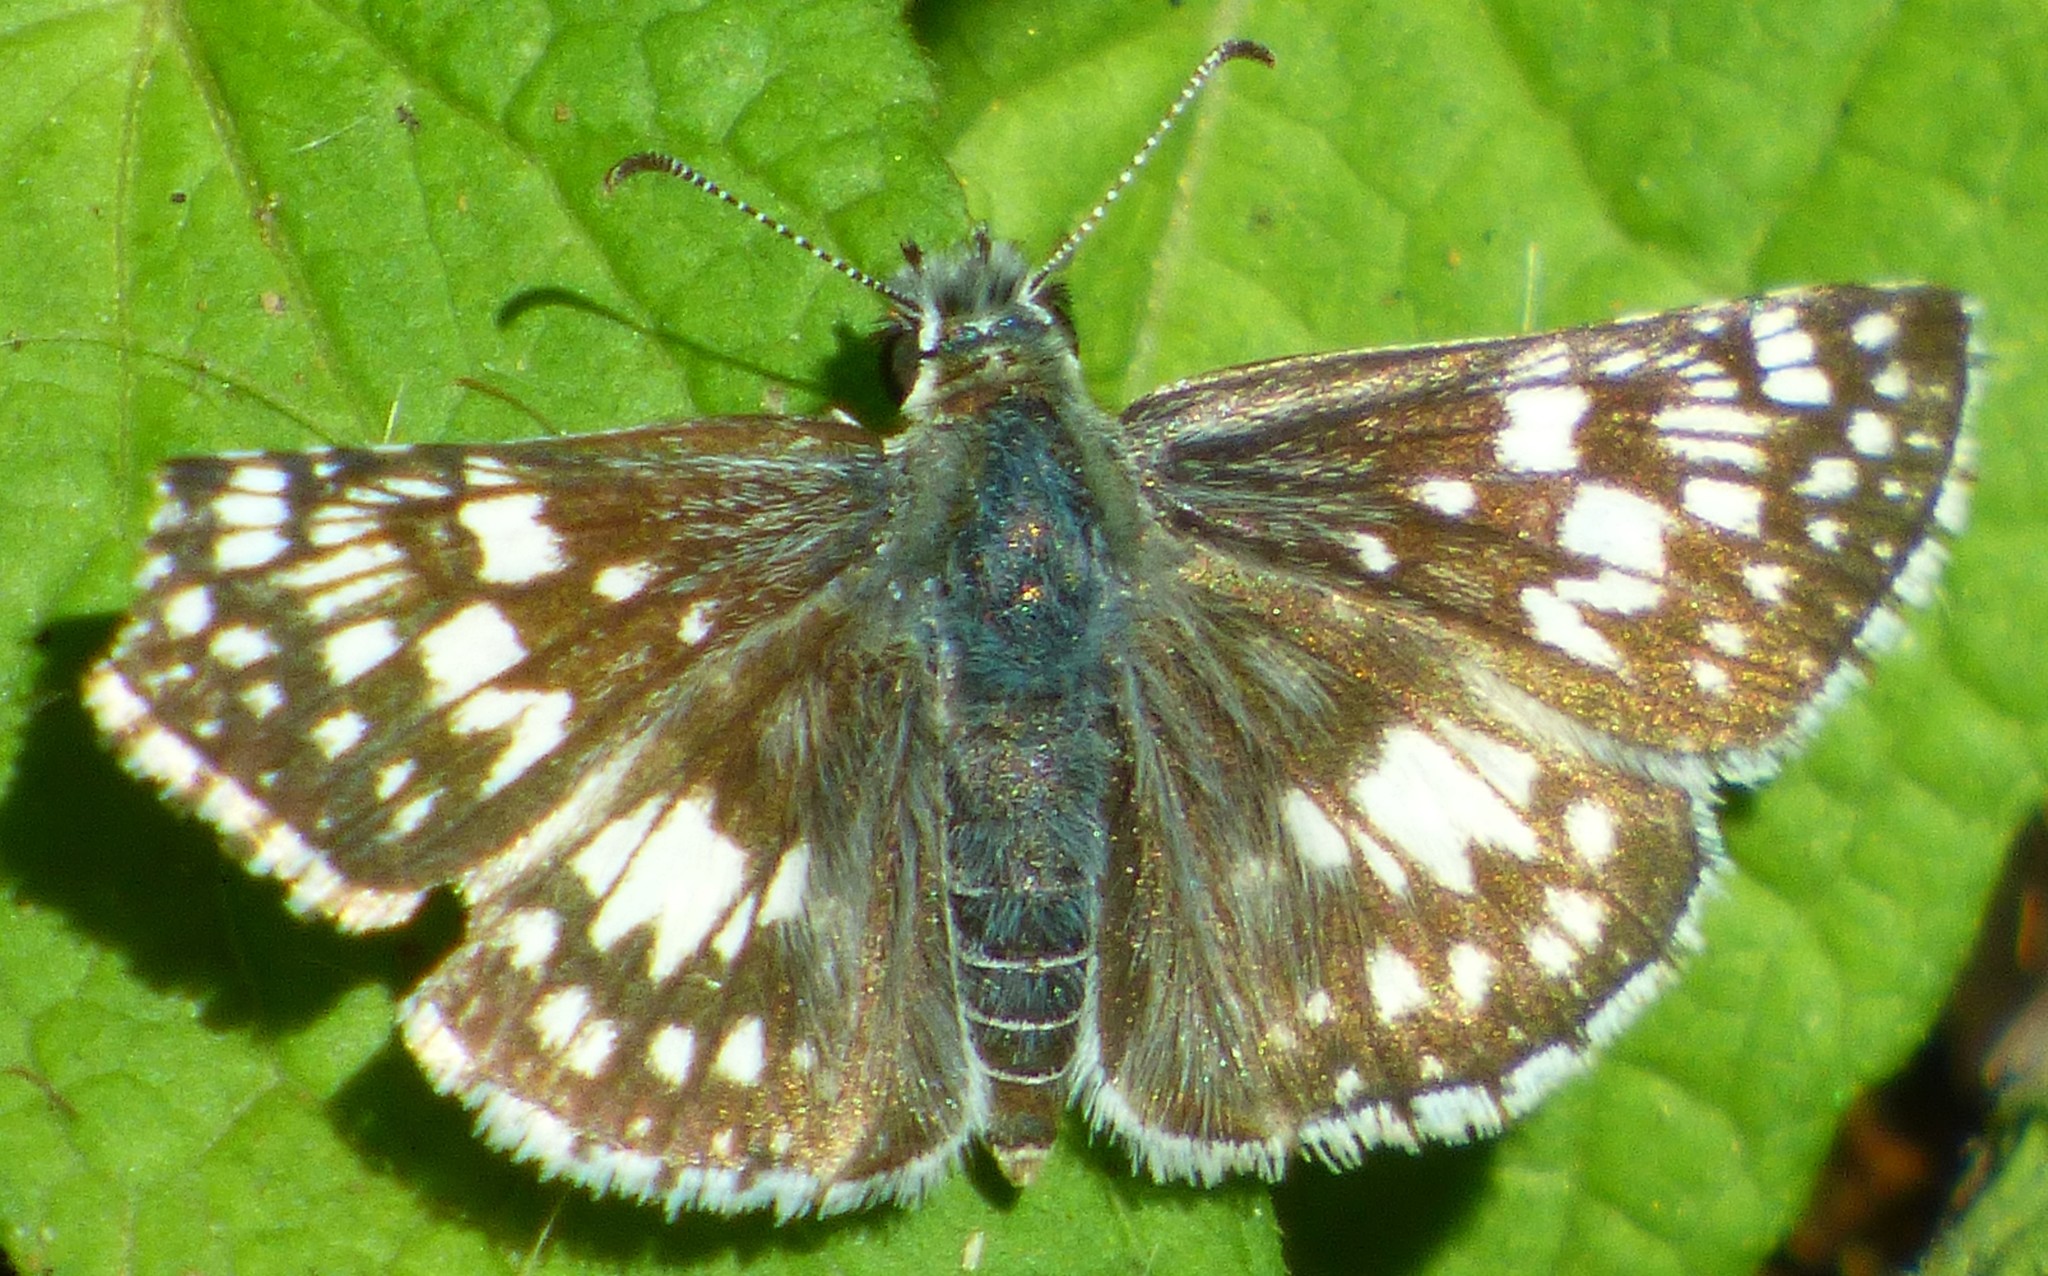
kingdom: Animalia
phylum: Arthropoda
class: Insecta
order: Lepidoptera
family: Hesperiidae
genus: Burnsius
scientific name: Burnsius
